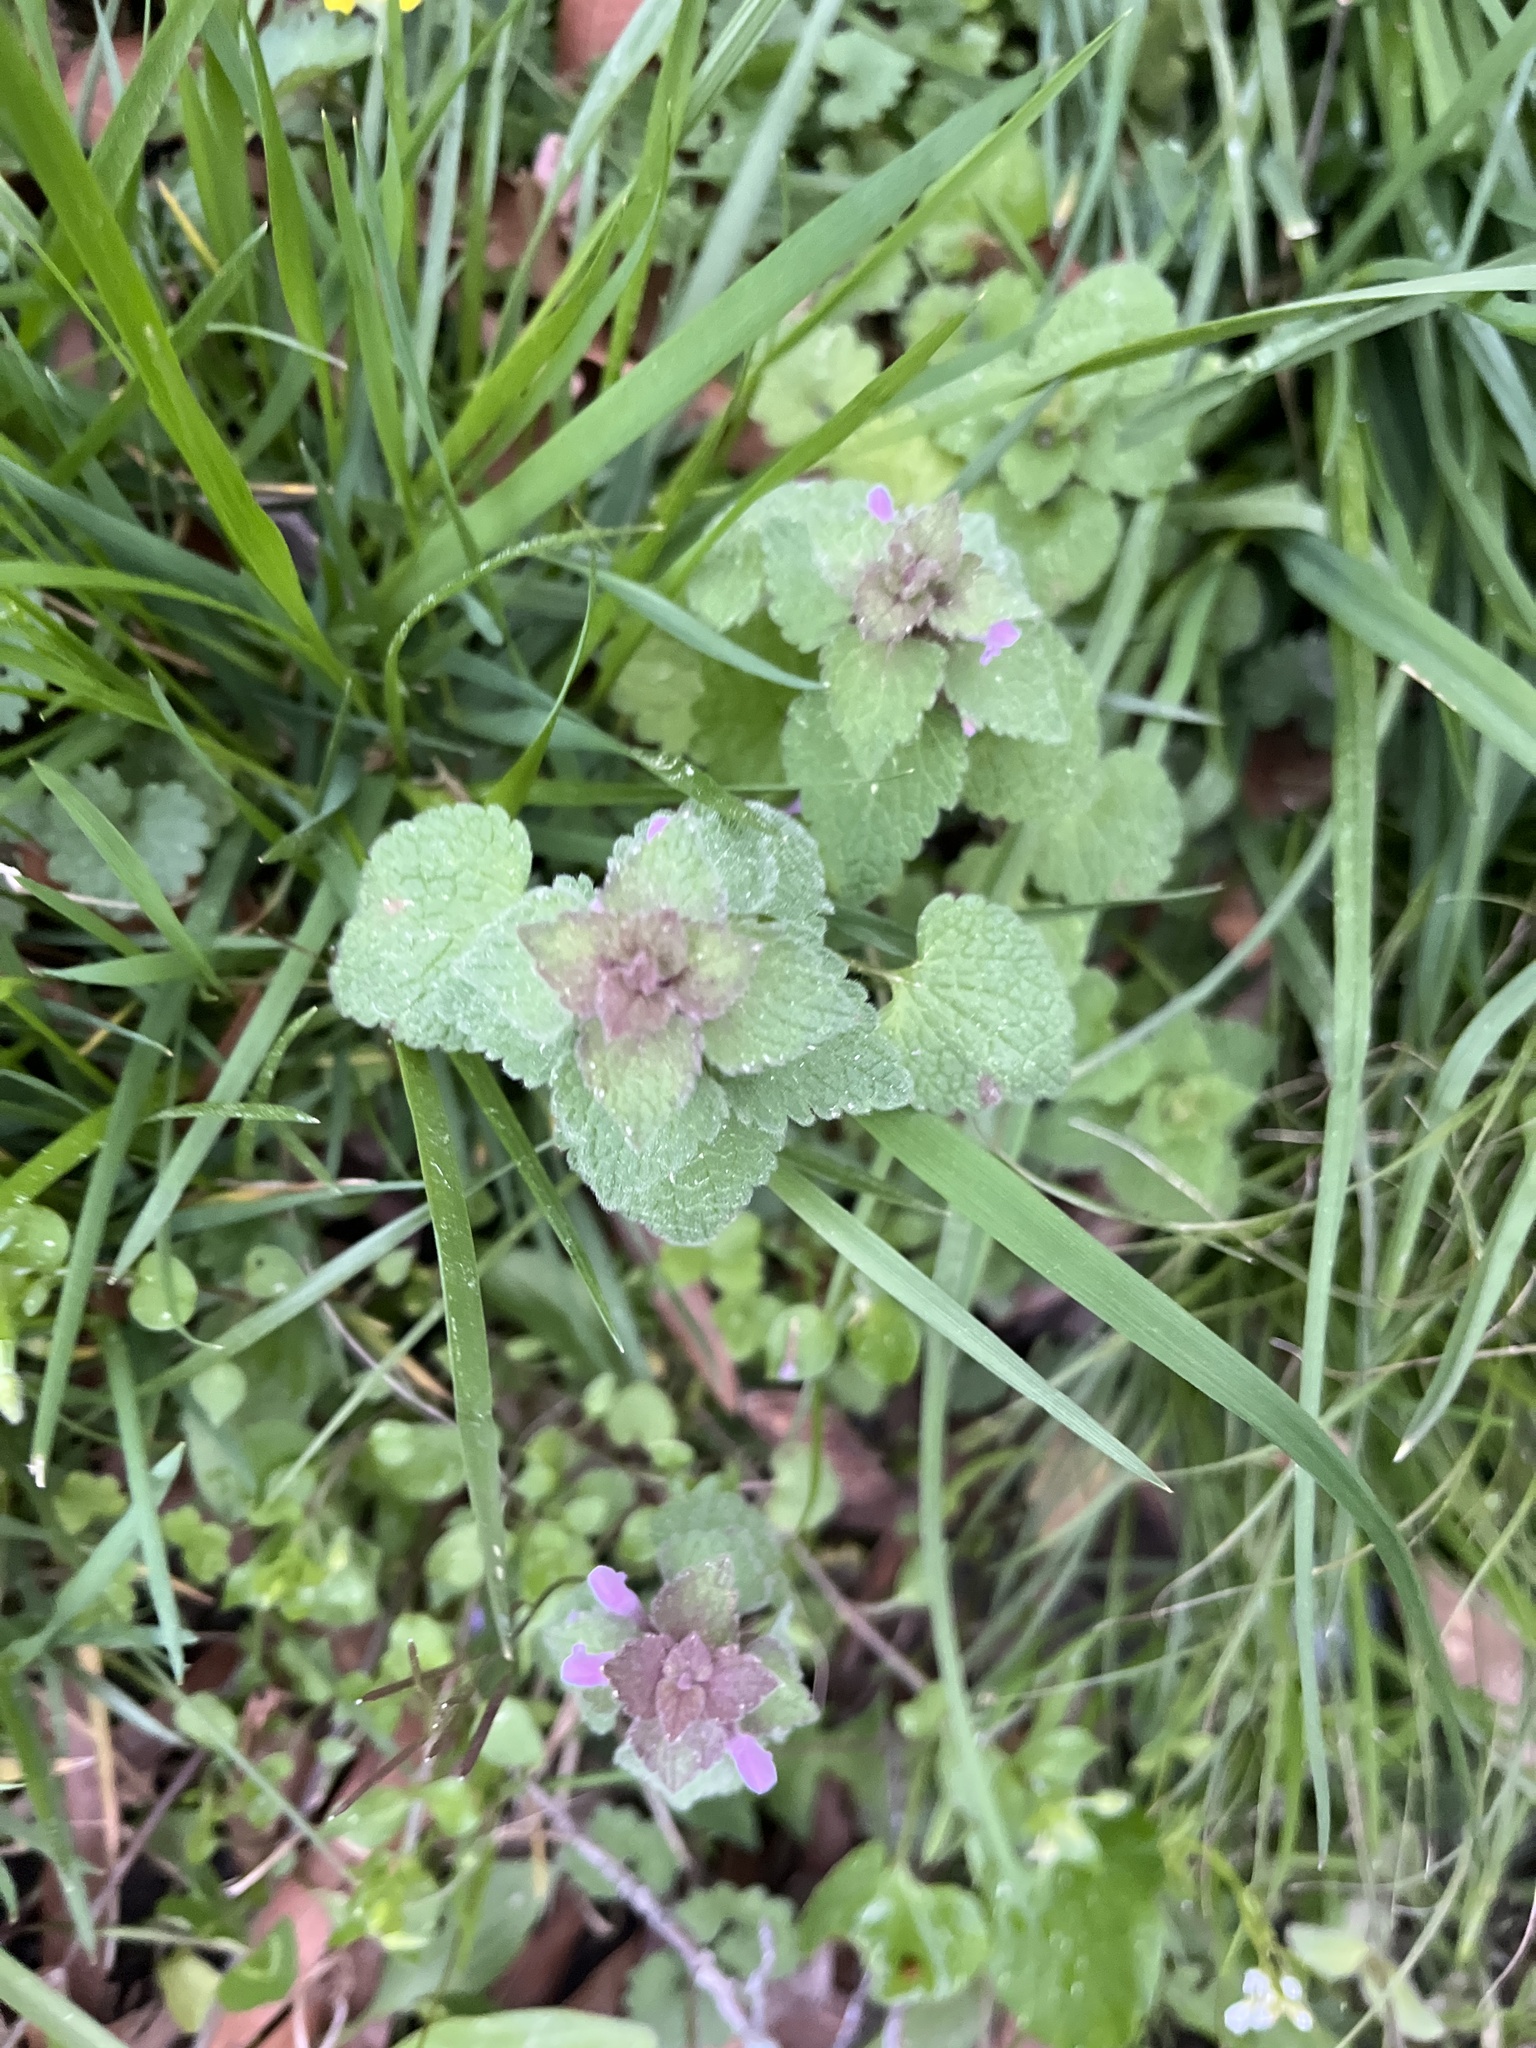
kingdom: Plantae
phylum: Tracheophyta
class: Magnoliopsida
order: Lamiales
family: Lamiaceae
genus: Lamium
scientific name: Lamium purpureum
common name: Red dead-nettle
